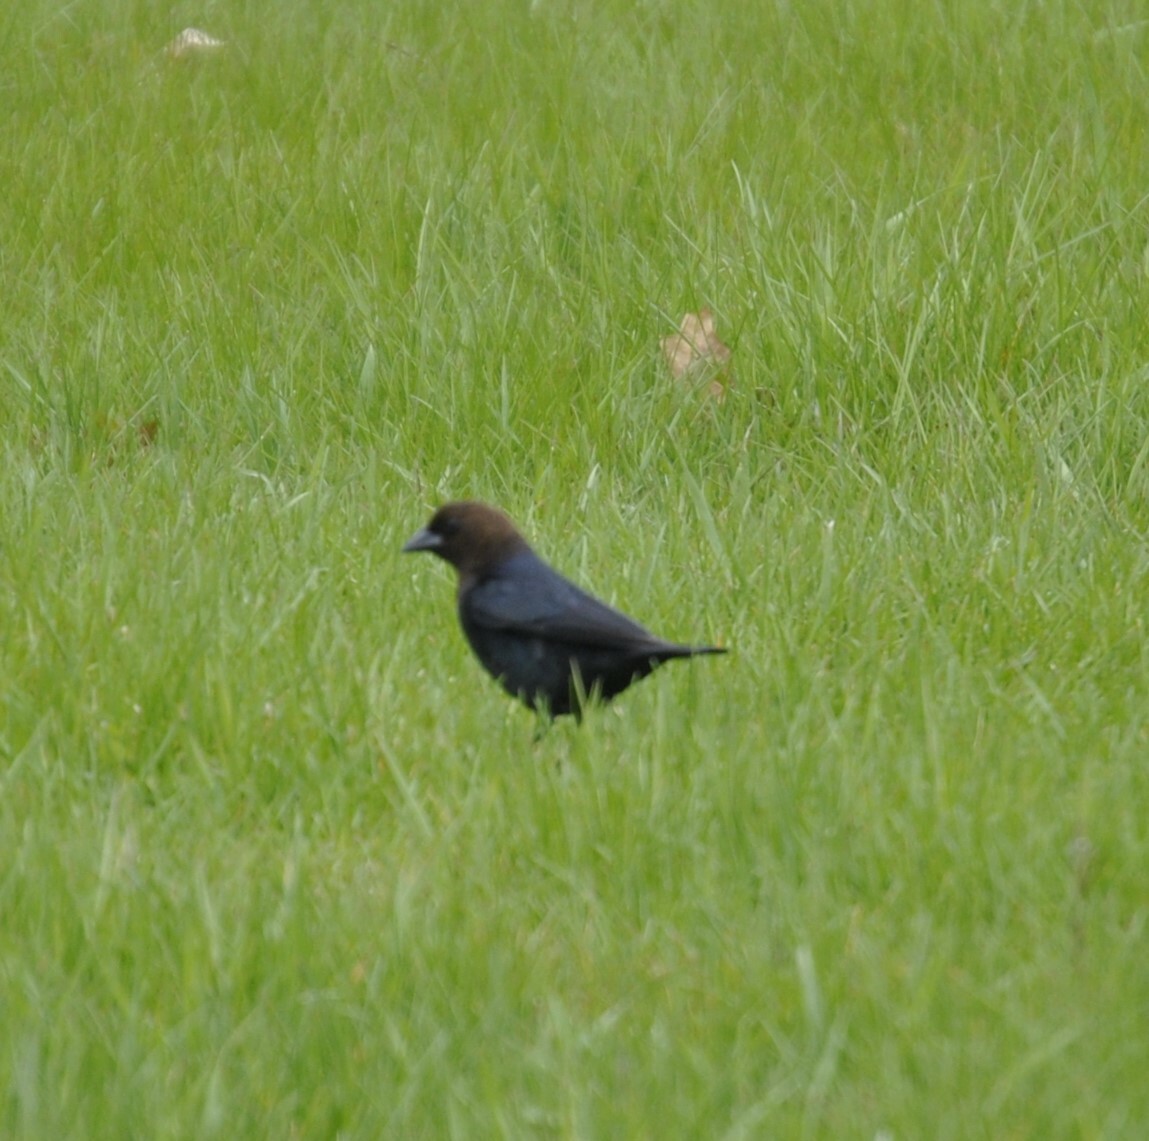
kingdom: Animalia
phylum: Chordata
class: Aves
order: Passeriformes
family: Icteridae
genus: Molothrus
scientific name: Molothrus ater
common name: Brown-headed cowbird
